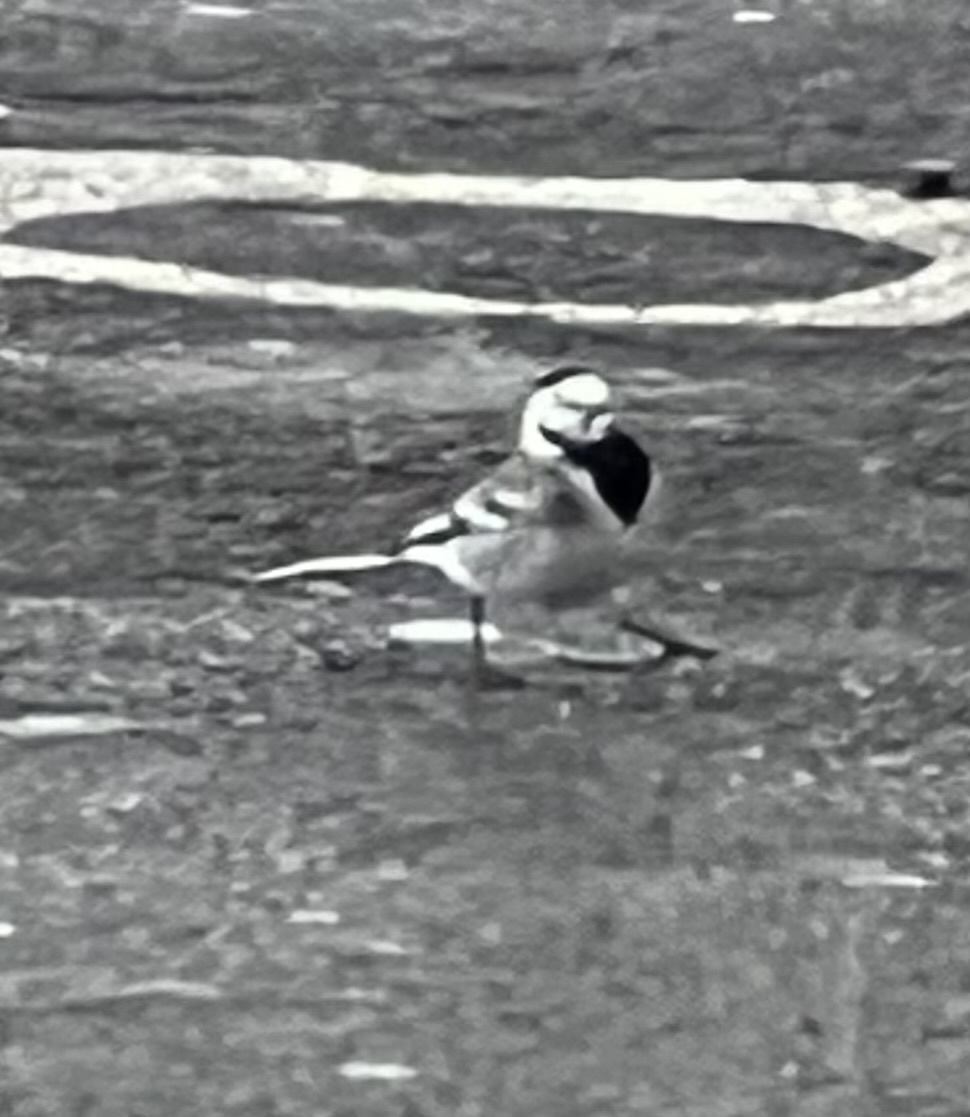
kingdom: Animalia
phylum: Chordata
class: Aves
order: Passeriformes
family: Motacillidae
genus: Motacilla
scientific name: Motacilla alba
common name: White wagtail
